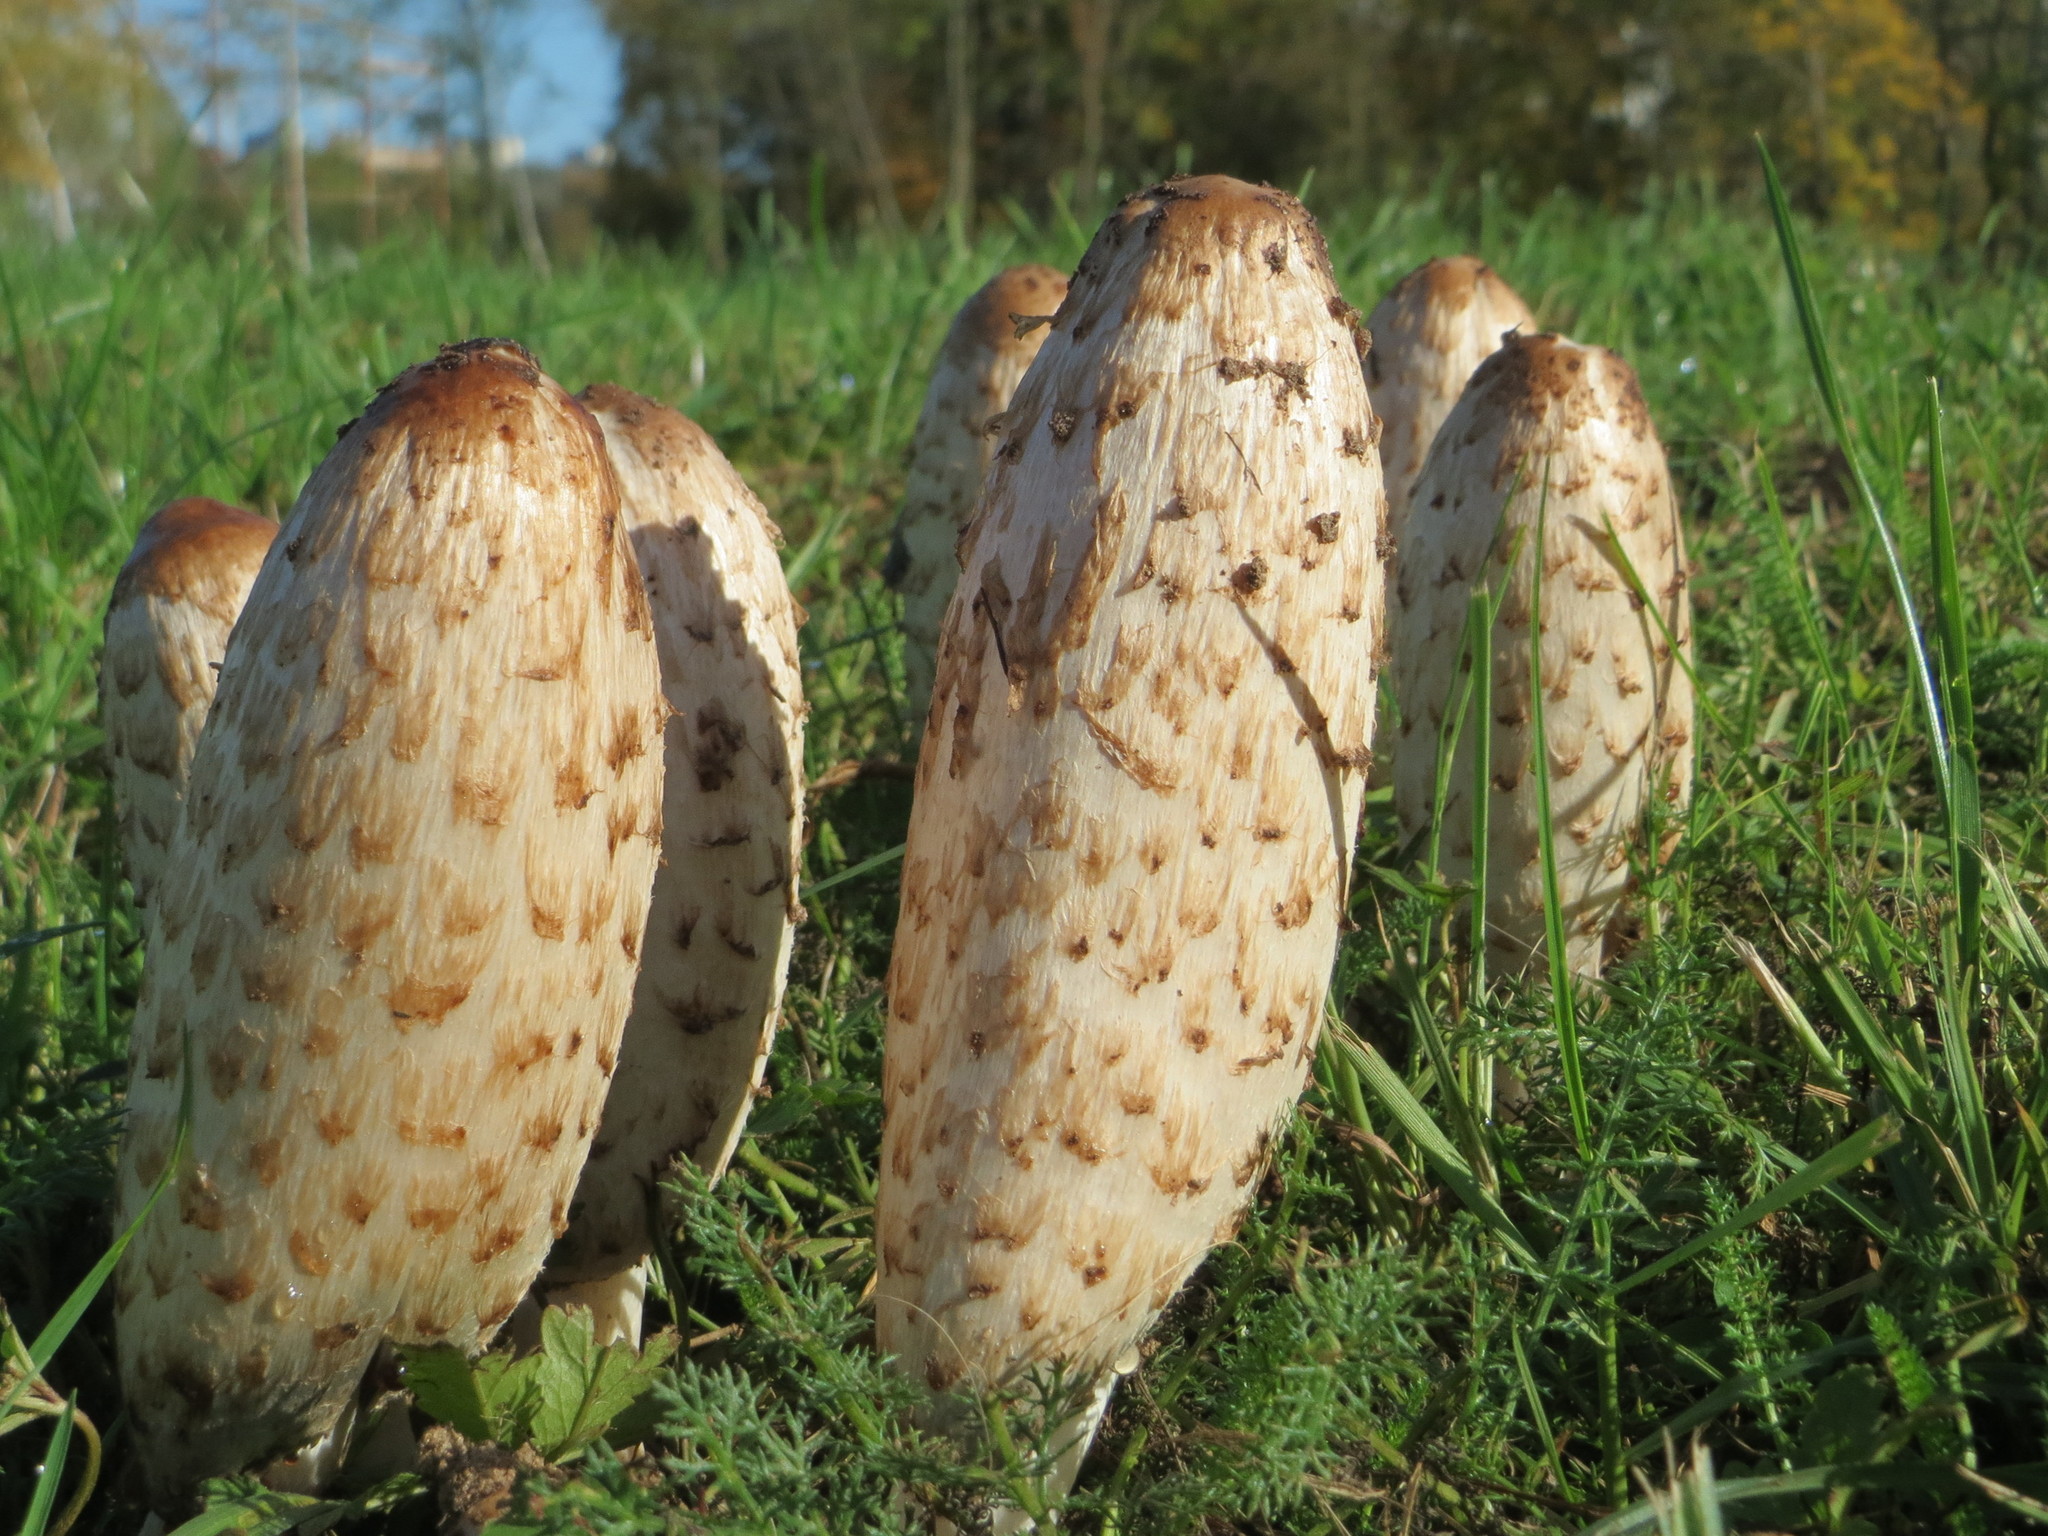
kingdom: Fungi
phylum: Basidiomycota
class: Agaricomycetes
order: Agaricales
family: Agaricaceae
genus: Coprinus
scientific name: Coprinus comatus
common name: Lawyer's wig
